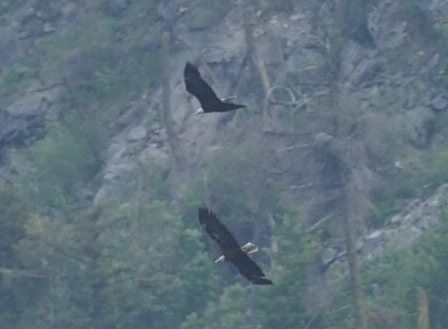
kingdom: Animalia
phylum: Chordata
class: Aves
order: Accipitriformes
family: Accipitridae
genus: Haliaeetus
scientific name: Haliaeetus leucocephalus
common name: Bald eagle
